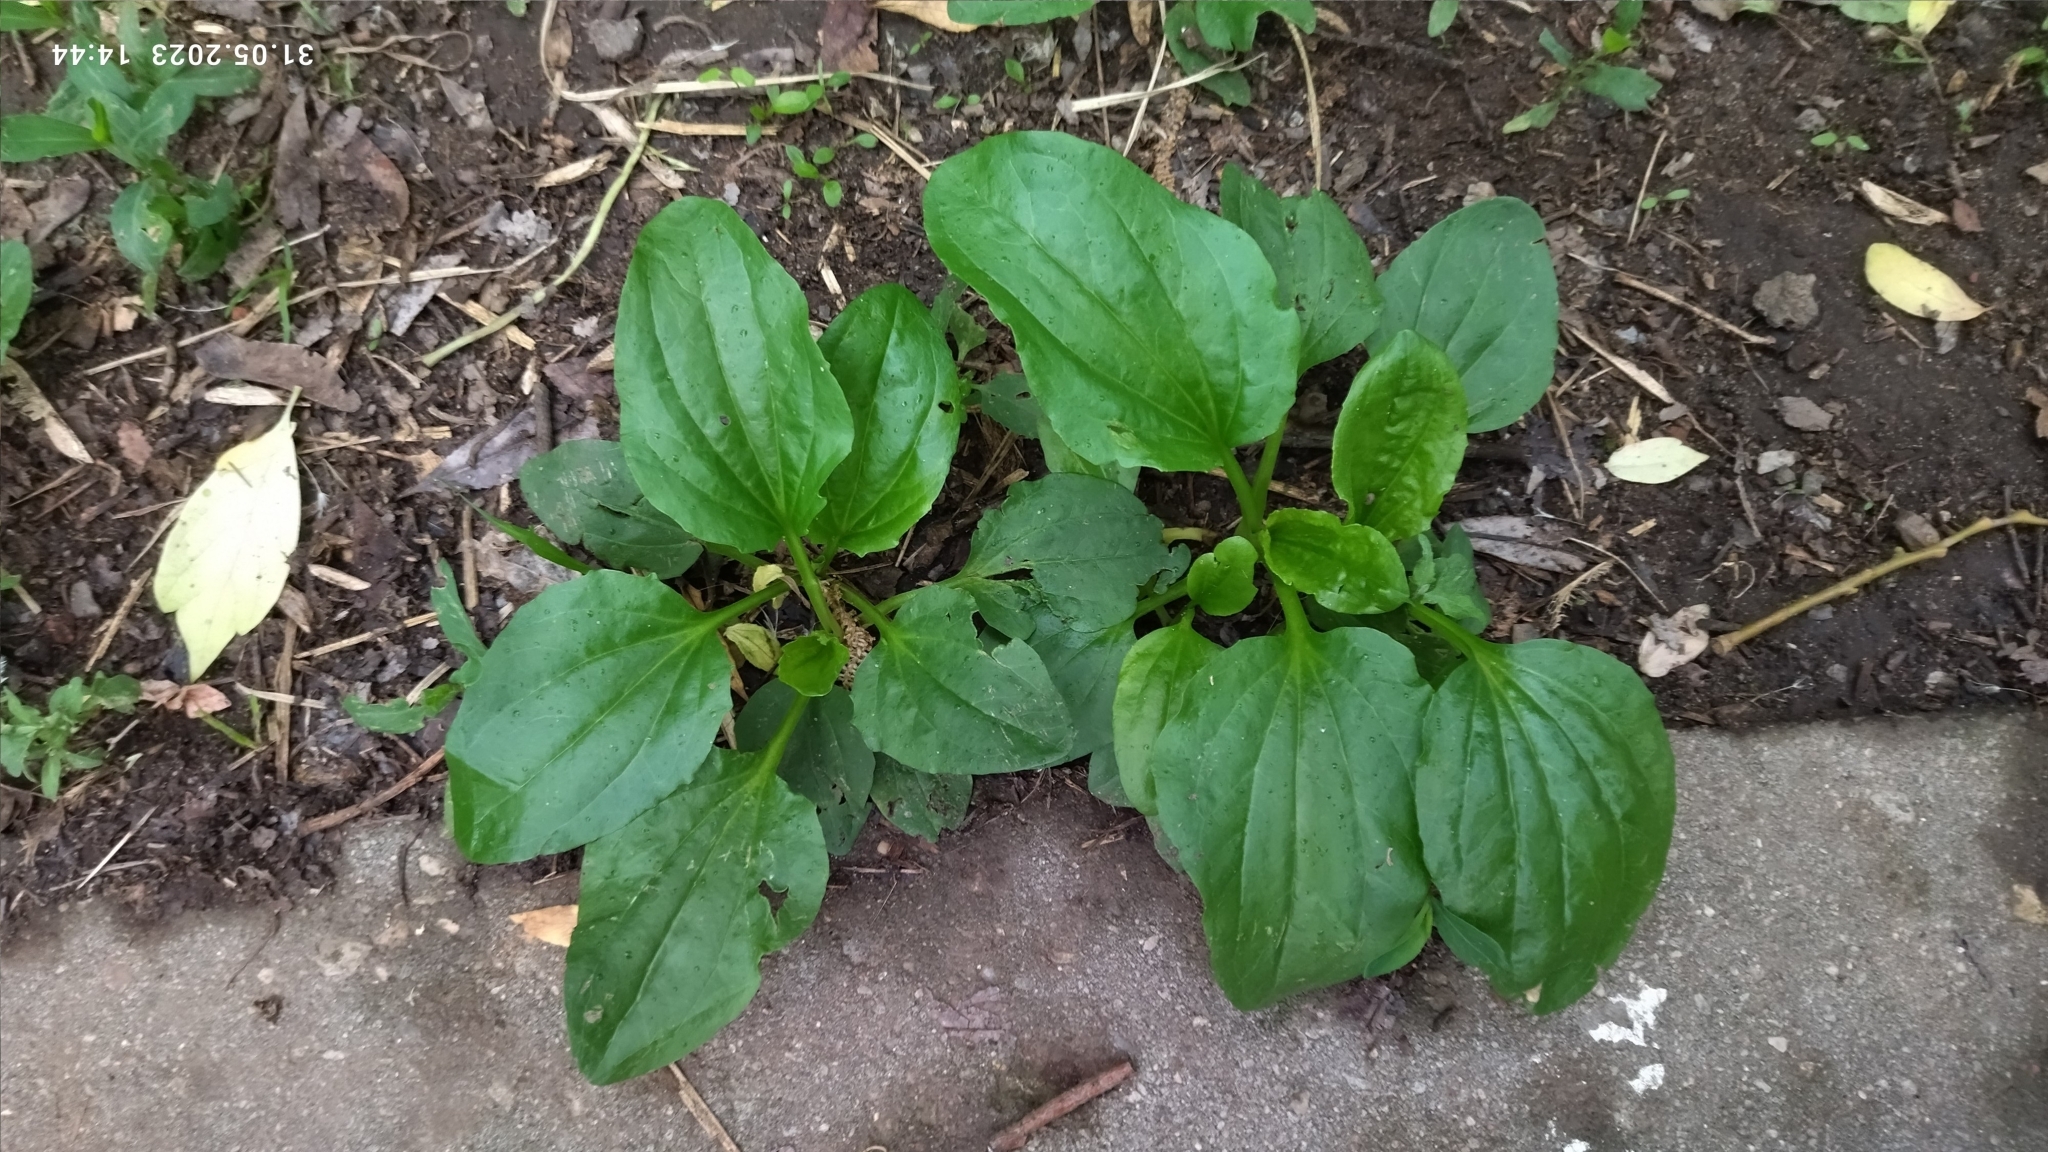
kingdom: Plantae
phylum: Tracheophyta
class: Magnoliopsida
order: Lamiales
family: Plantaginaceae
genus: Plantago
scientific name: Plantago major
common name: Common plantain
